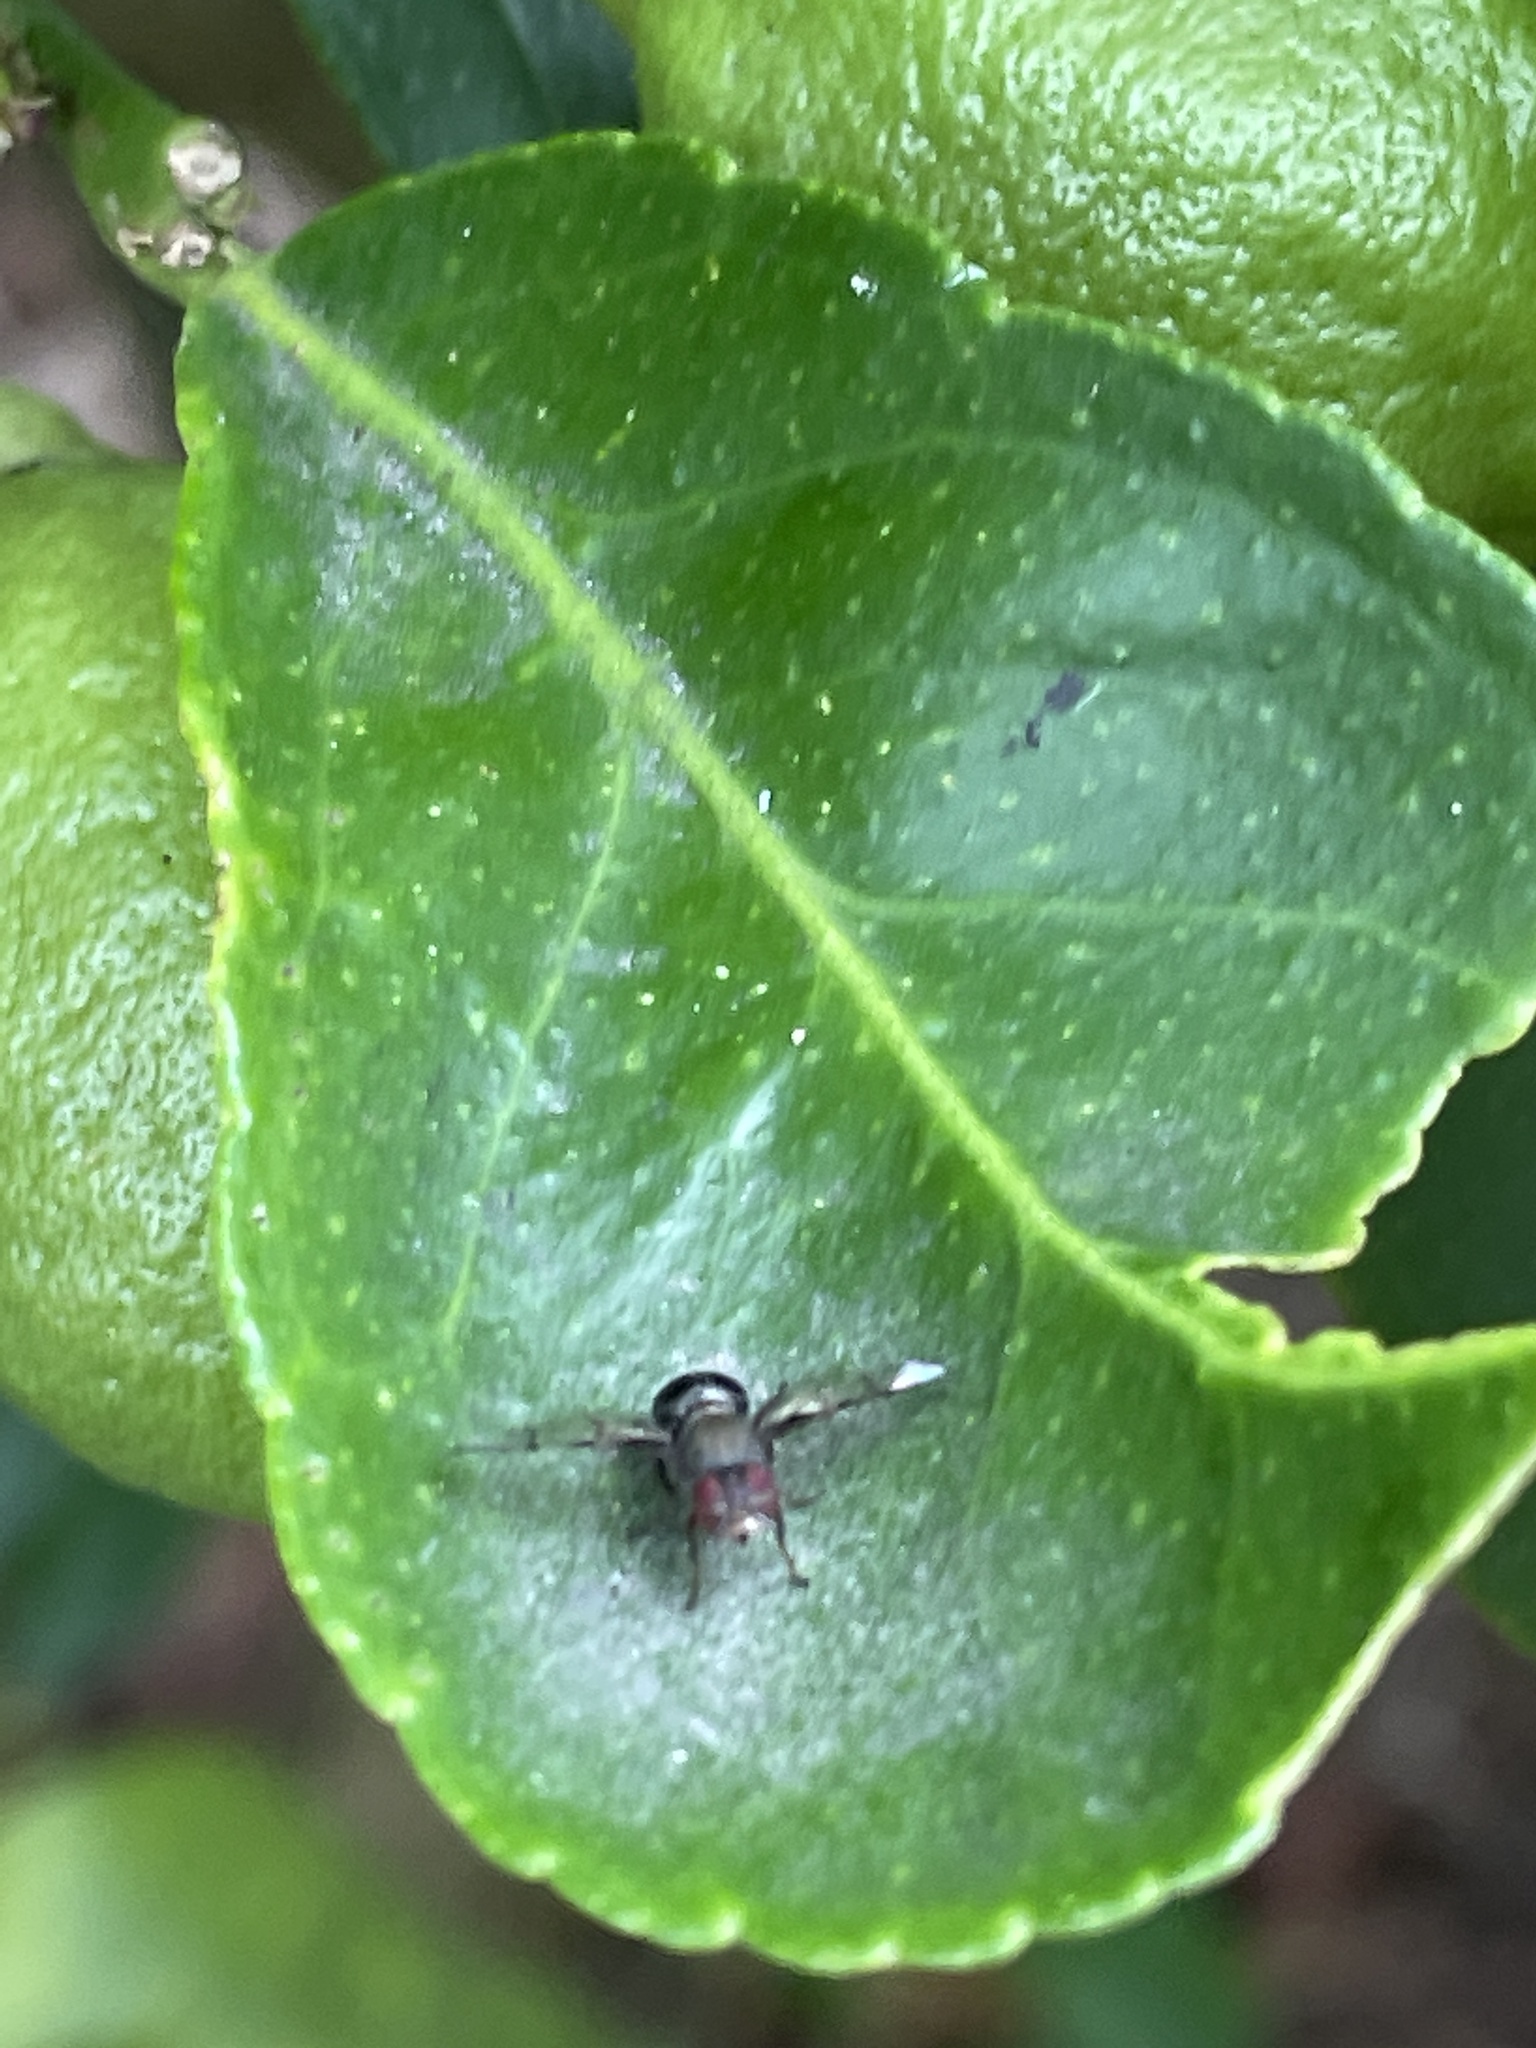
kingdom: Animalia
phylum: Arthropoda
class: Insecta
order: Diptera
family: Platystomatidae
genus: Pogonortalis
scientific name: Pogonortalis doclea
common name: Boatman fly
